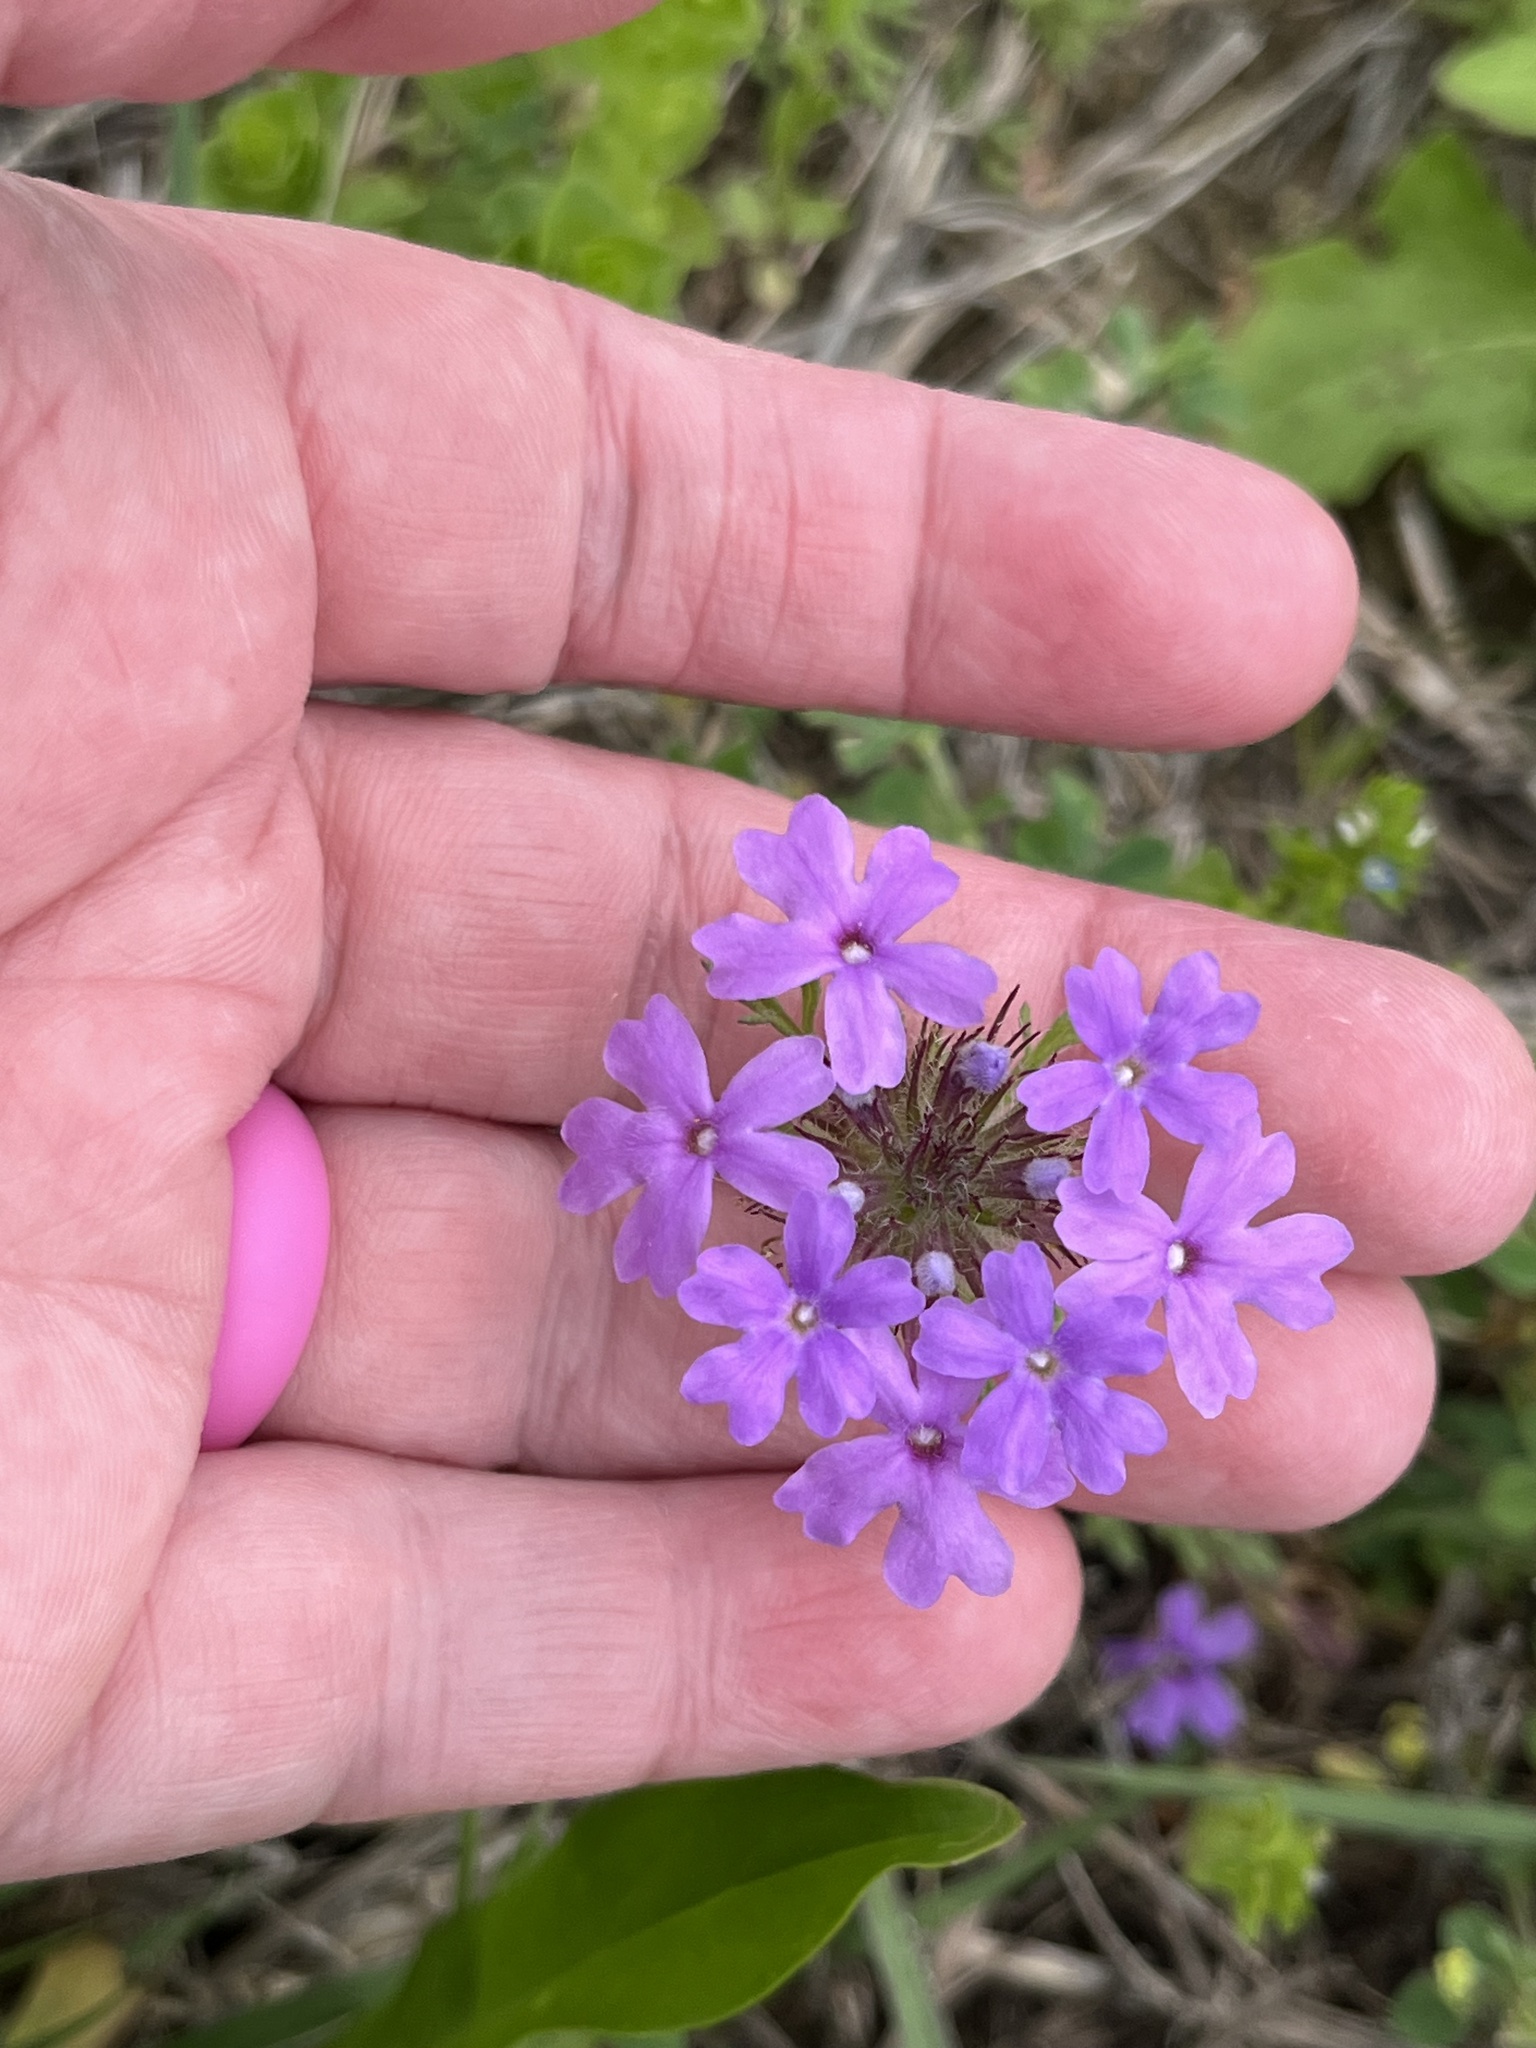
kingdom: Plantae
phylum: Tracheophyta
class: Magnoliopsida
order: Lamiales
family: Verbenaceae
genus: Verbena
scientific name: Verbena bipinnatifida
